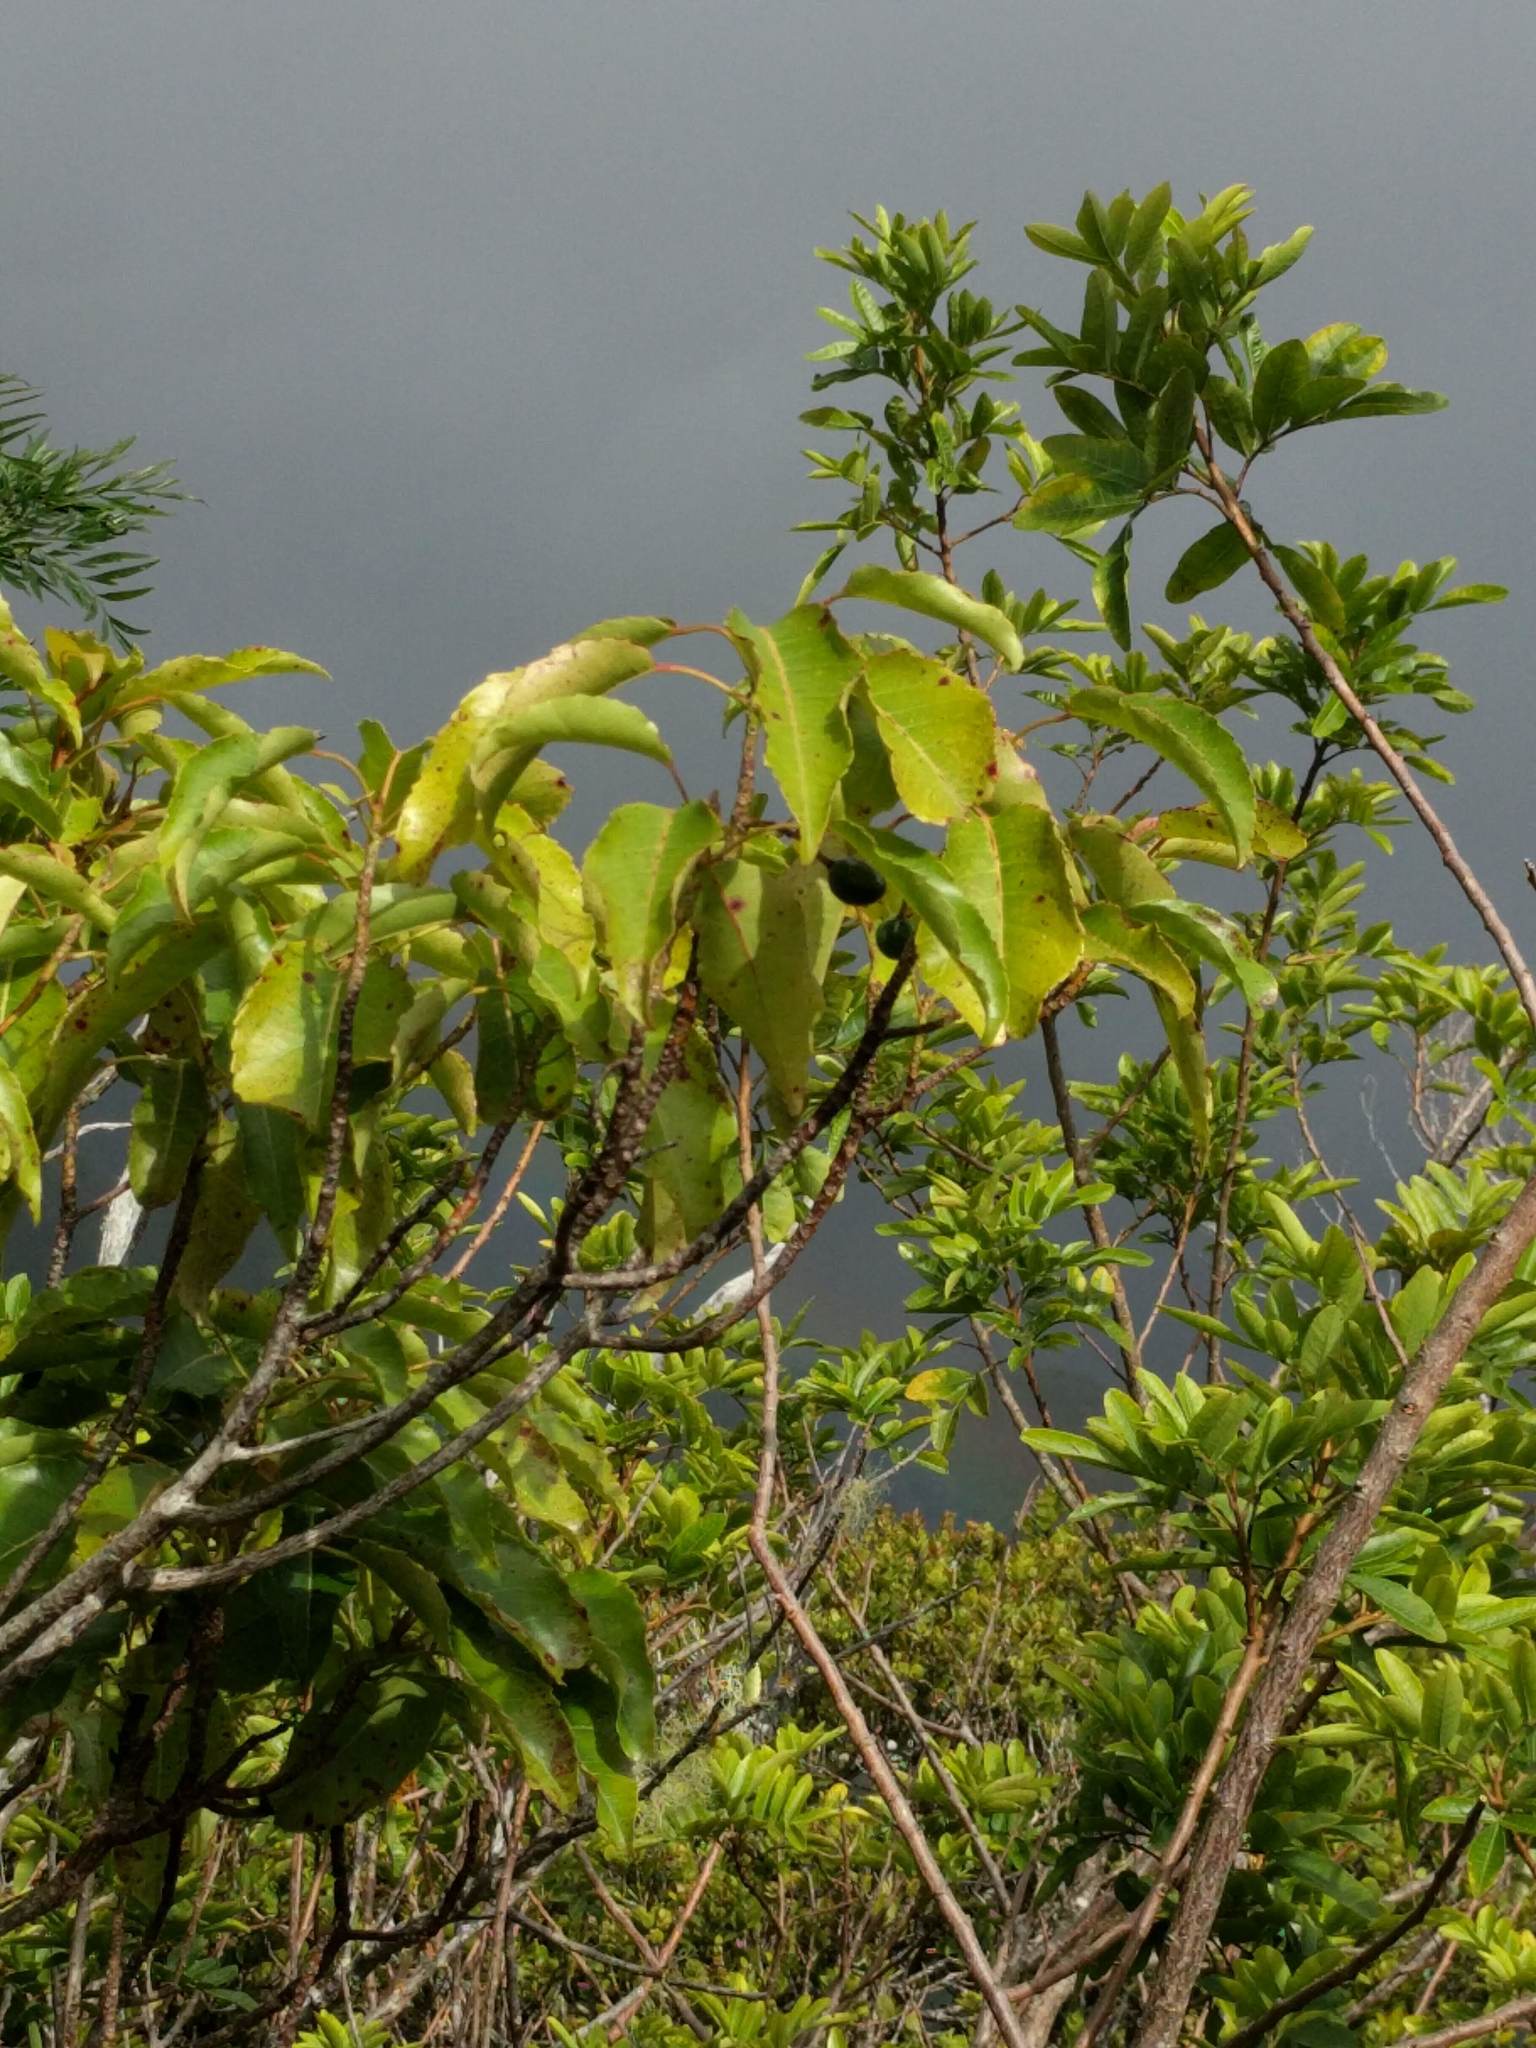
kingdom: Plantae
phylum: Tracheophyta
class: Magnoliopsida
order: Oxalidales
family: Elaeocarpaceae
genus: Elaeocarpus
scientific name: Elaeocarpus bifidus
